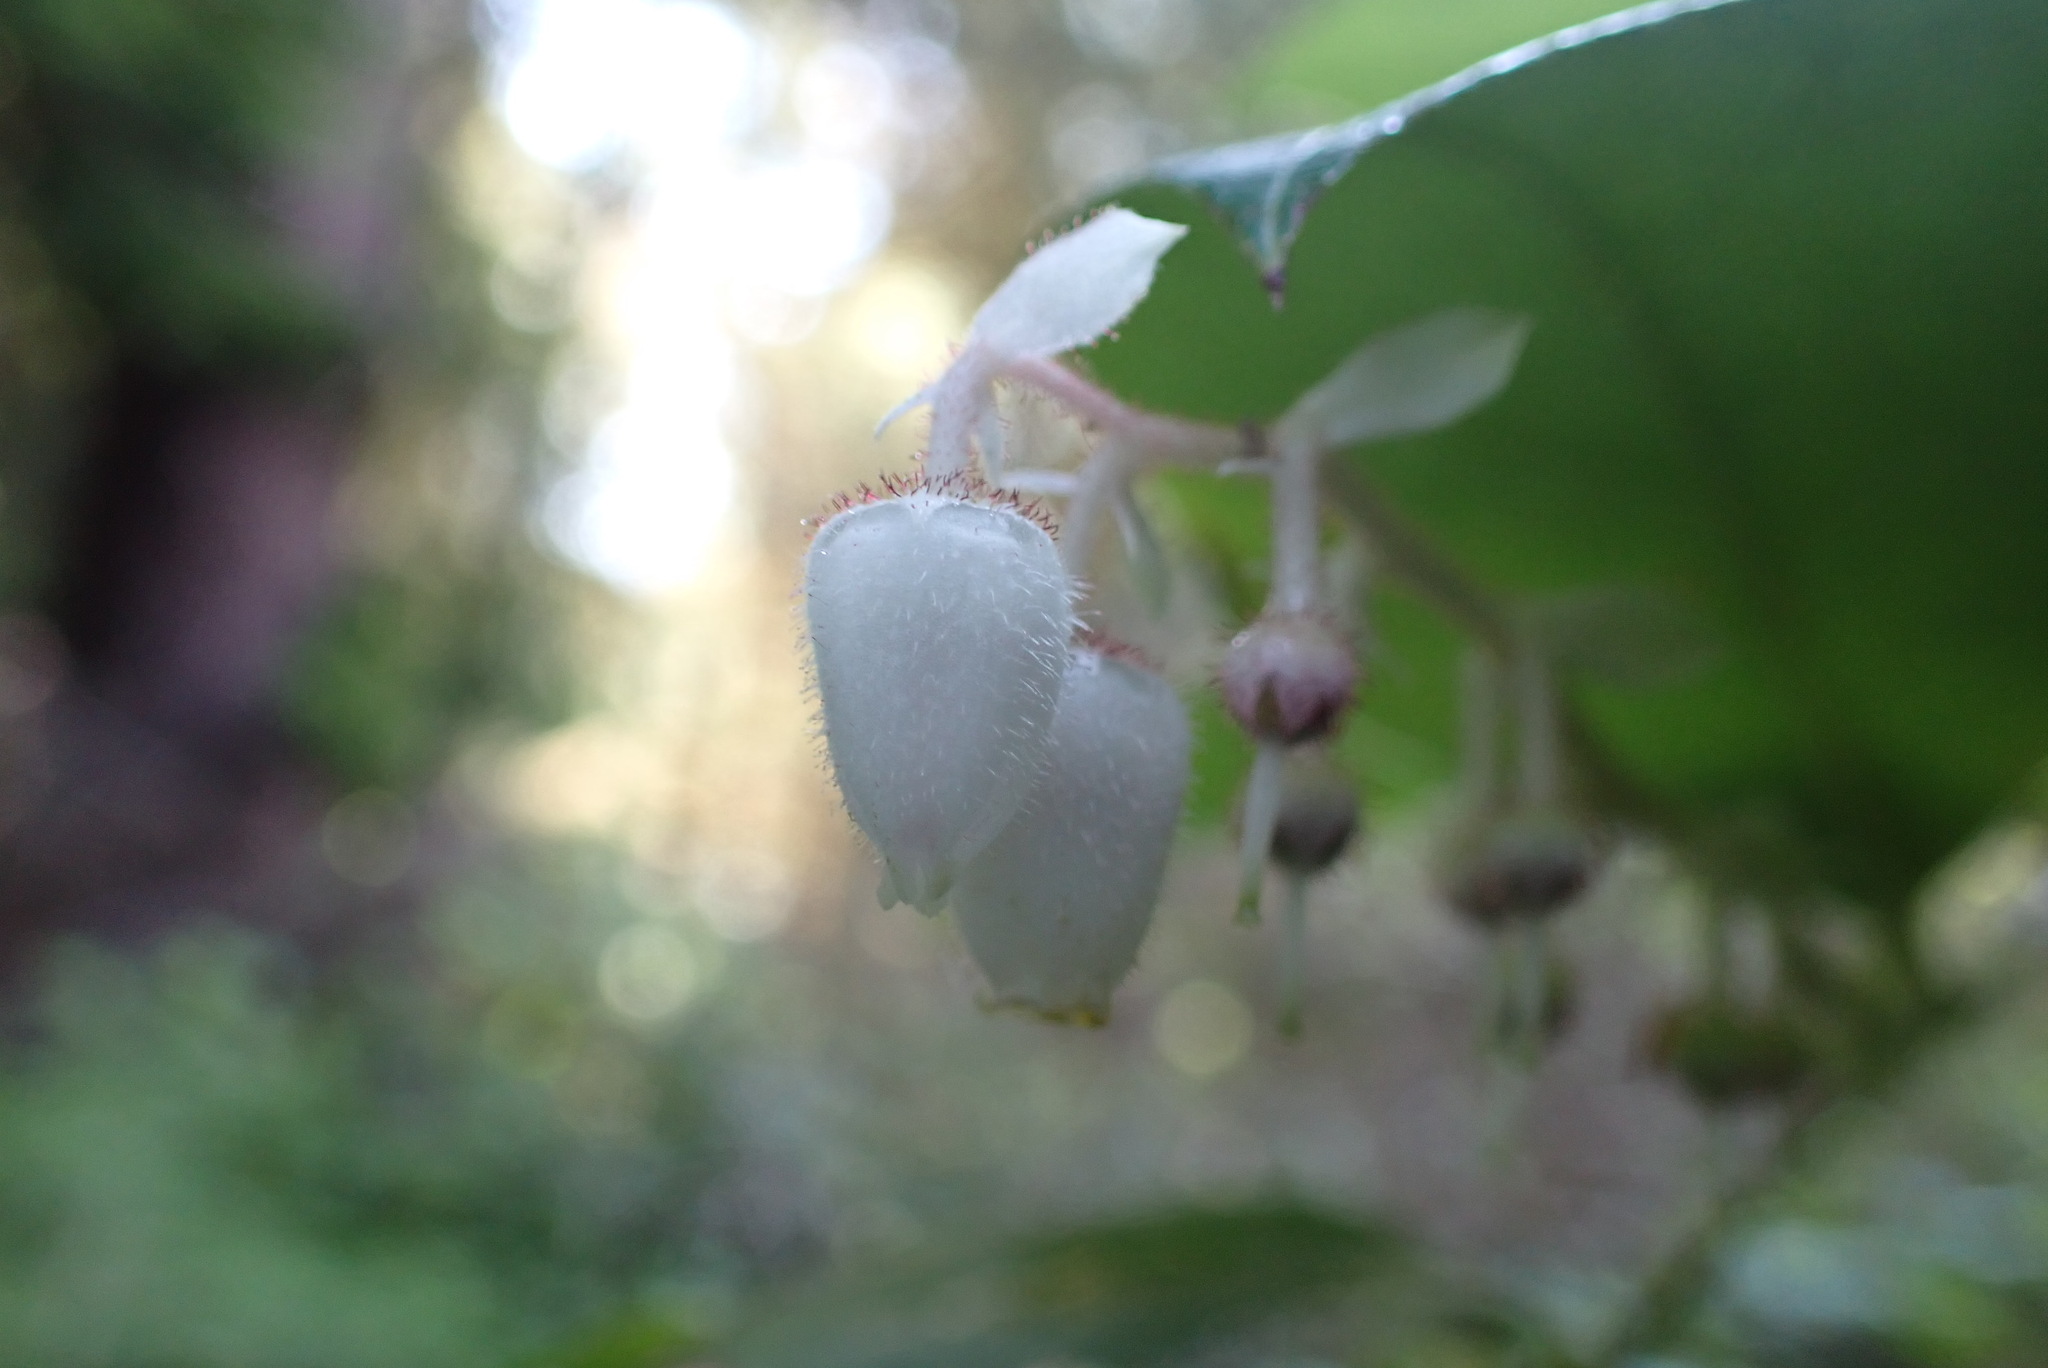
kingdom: Plantae
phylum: Tracheophyta
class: Magnoliopsida
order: Ericales
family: Ericaceae
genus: Gaultheria
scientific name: Gaultheria shallon
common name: Shallon
